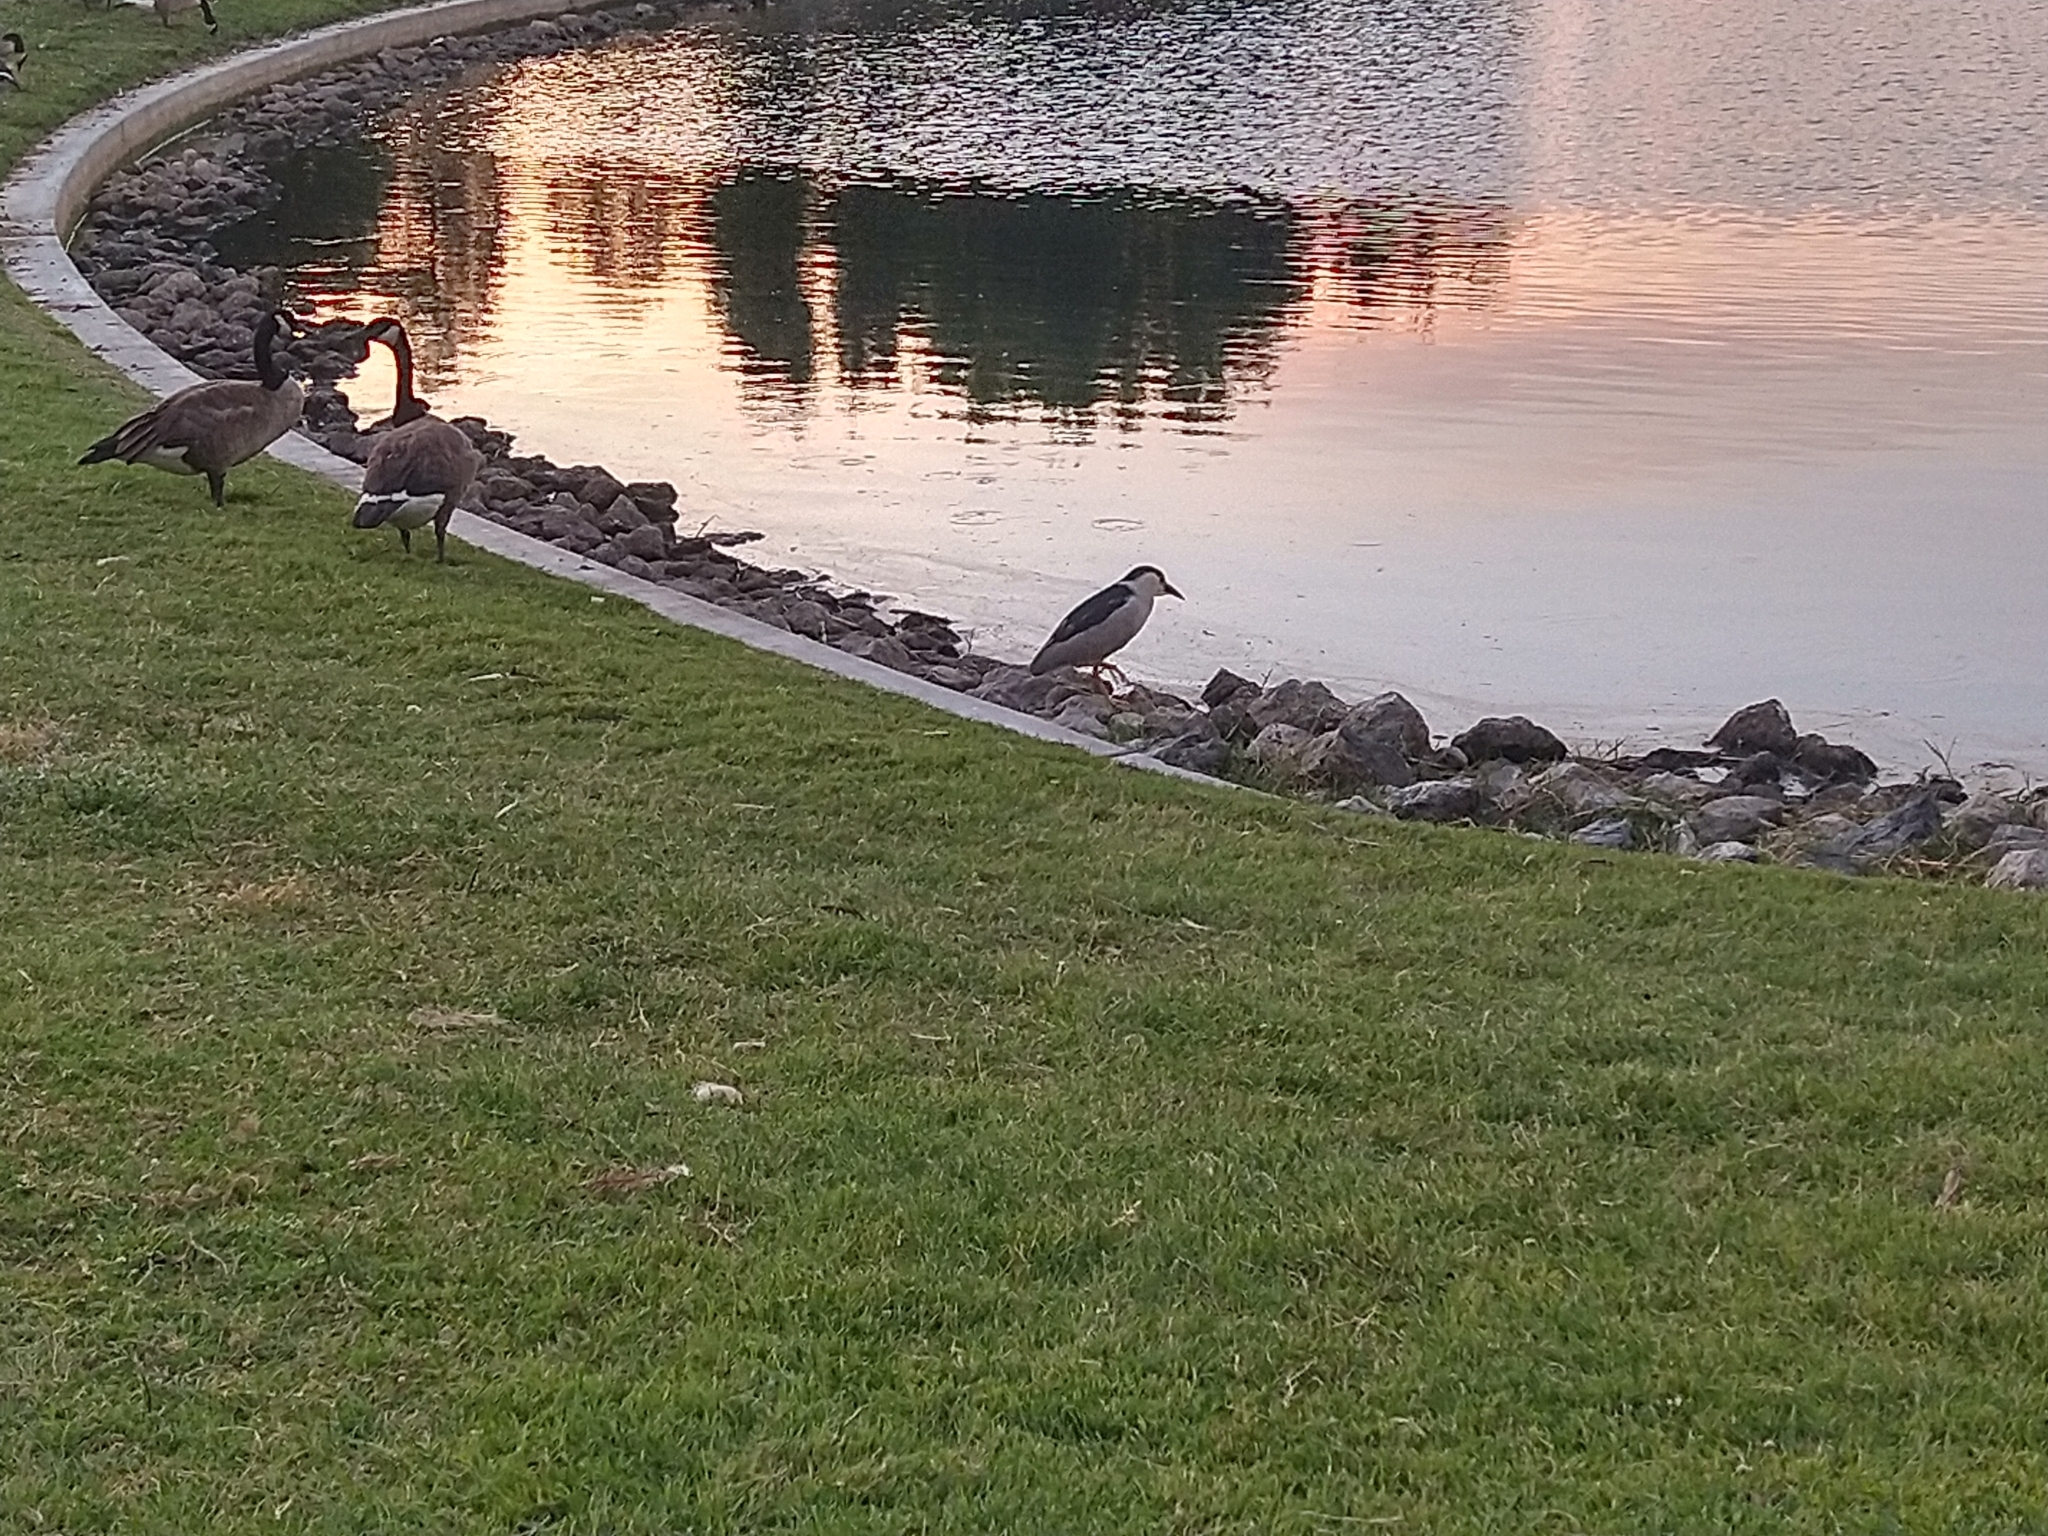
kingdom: Animalia
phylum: Chordata
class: Aves
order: Pelecaniformes
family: Ardeidae
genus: Nycticorax
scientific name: Nycticorax nycticorax
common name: Black-crowned night heron
